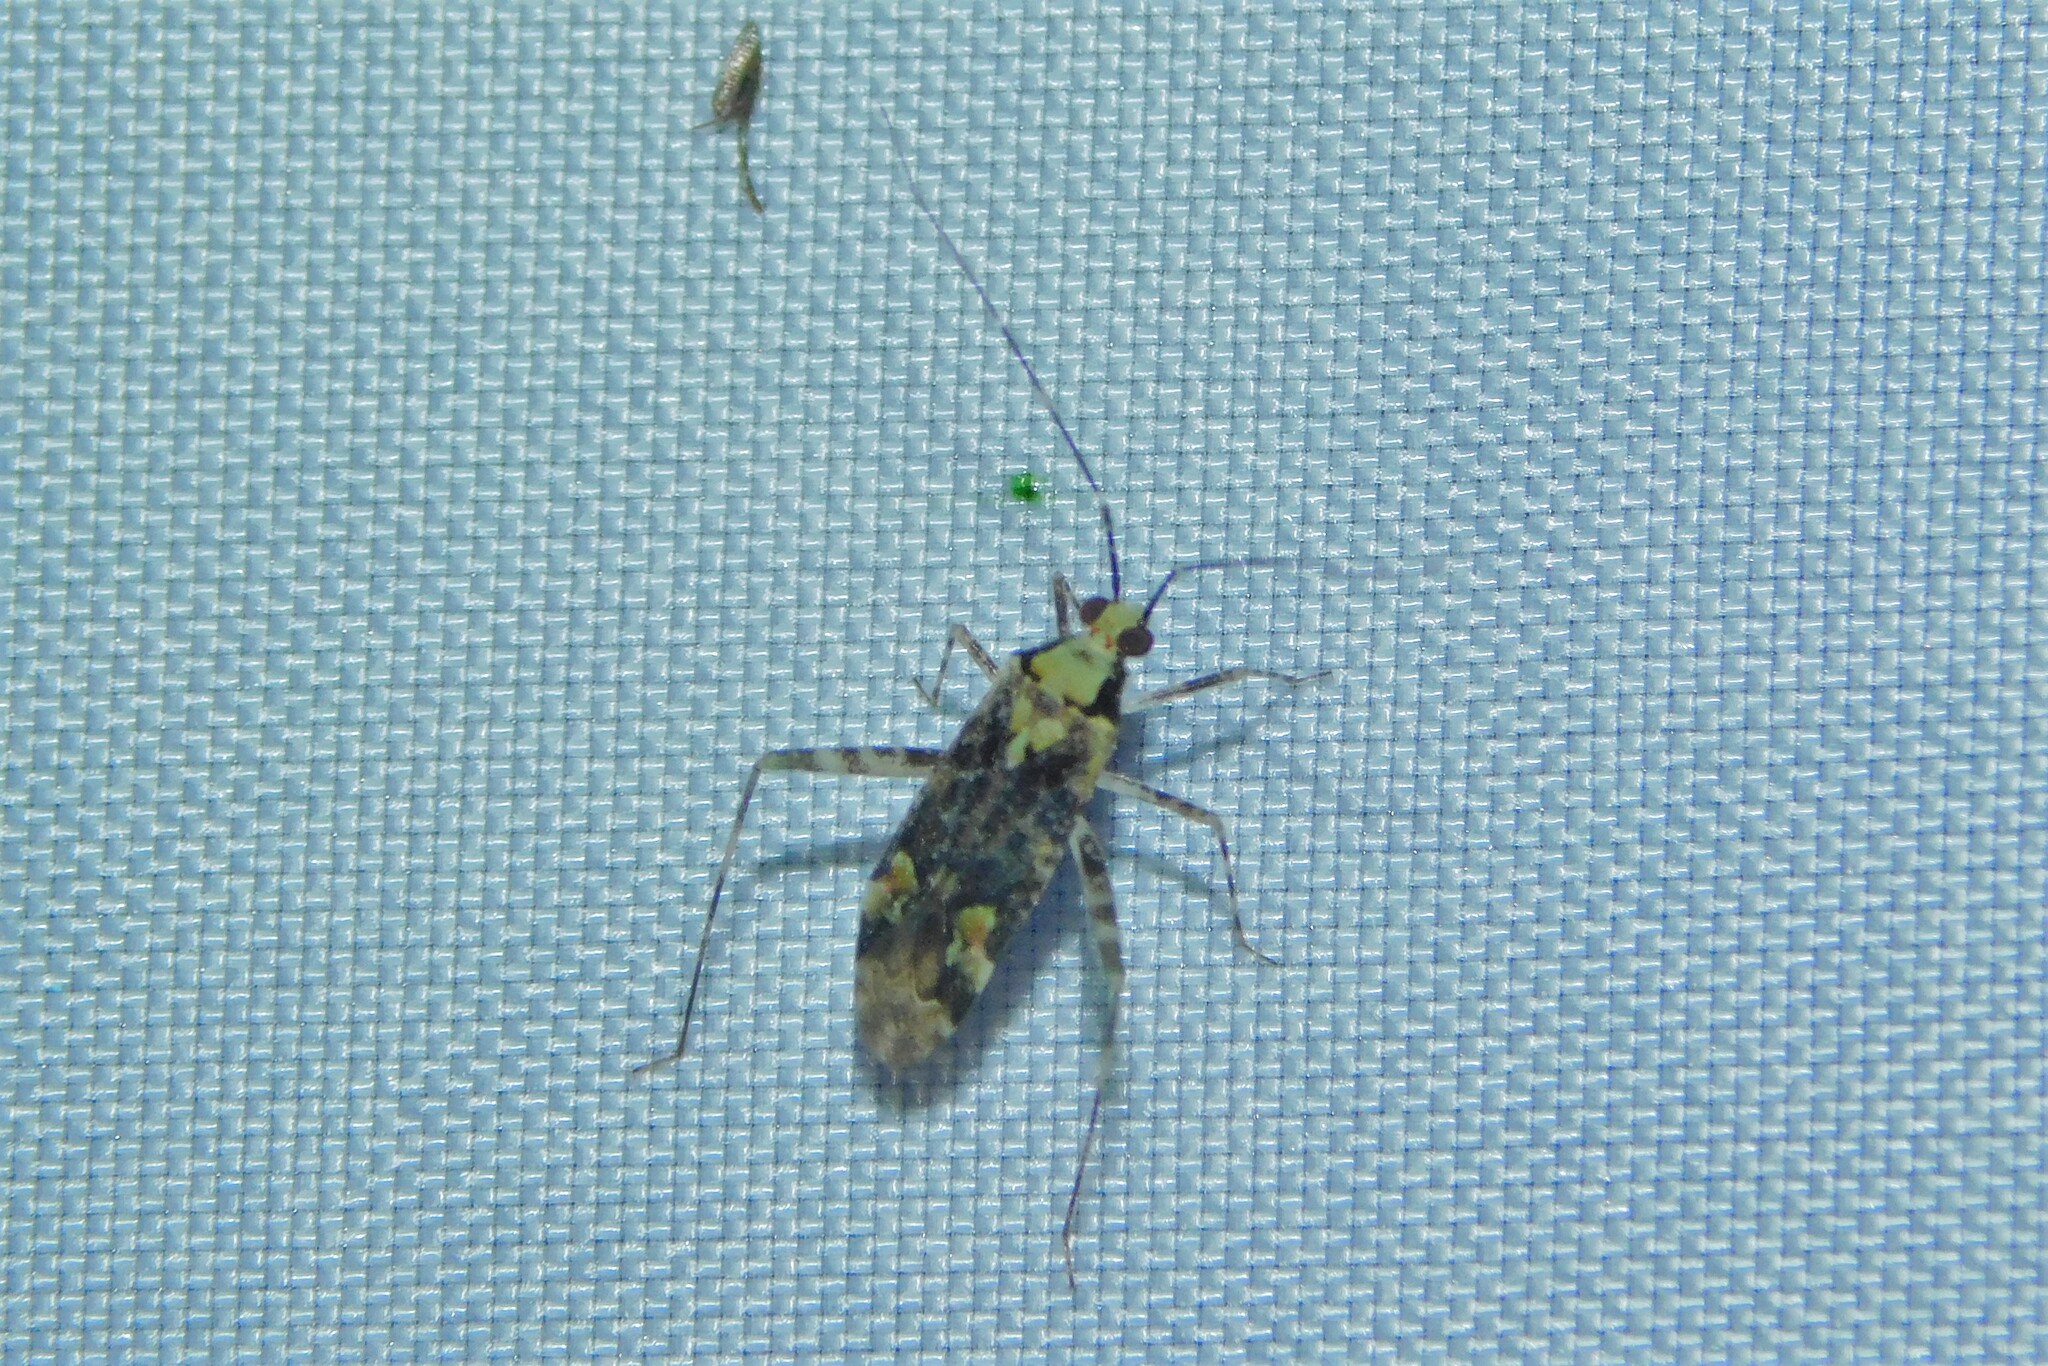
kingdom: Animalia
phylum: Arthropoda
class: Insecta
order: Hemiptera
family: Miridae
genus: Phytocoris
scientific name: Phytocoris tiliae
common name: Plant bug
